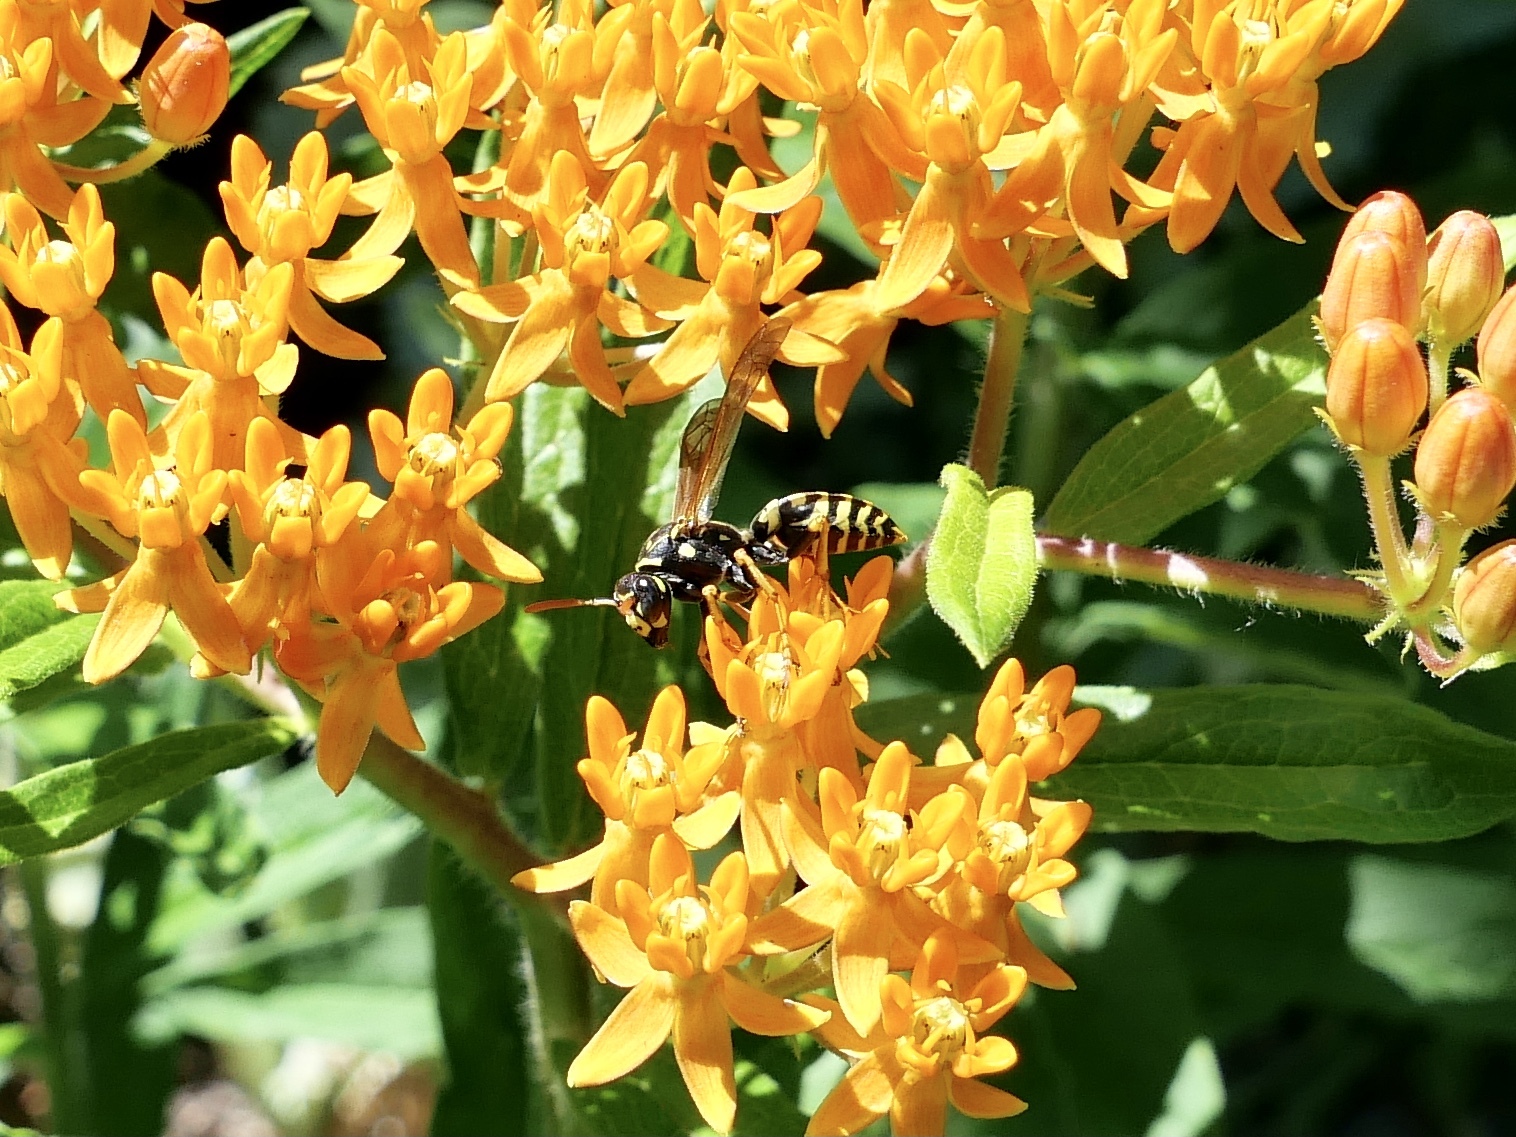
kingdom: Animalia
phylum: Arthropoda
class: Insecta
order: Hymenoptera
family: Eumenidae
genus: Polistes
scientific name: Polistes dominula
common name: Paper wasp
